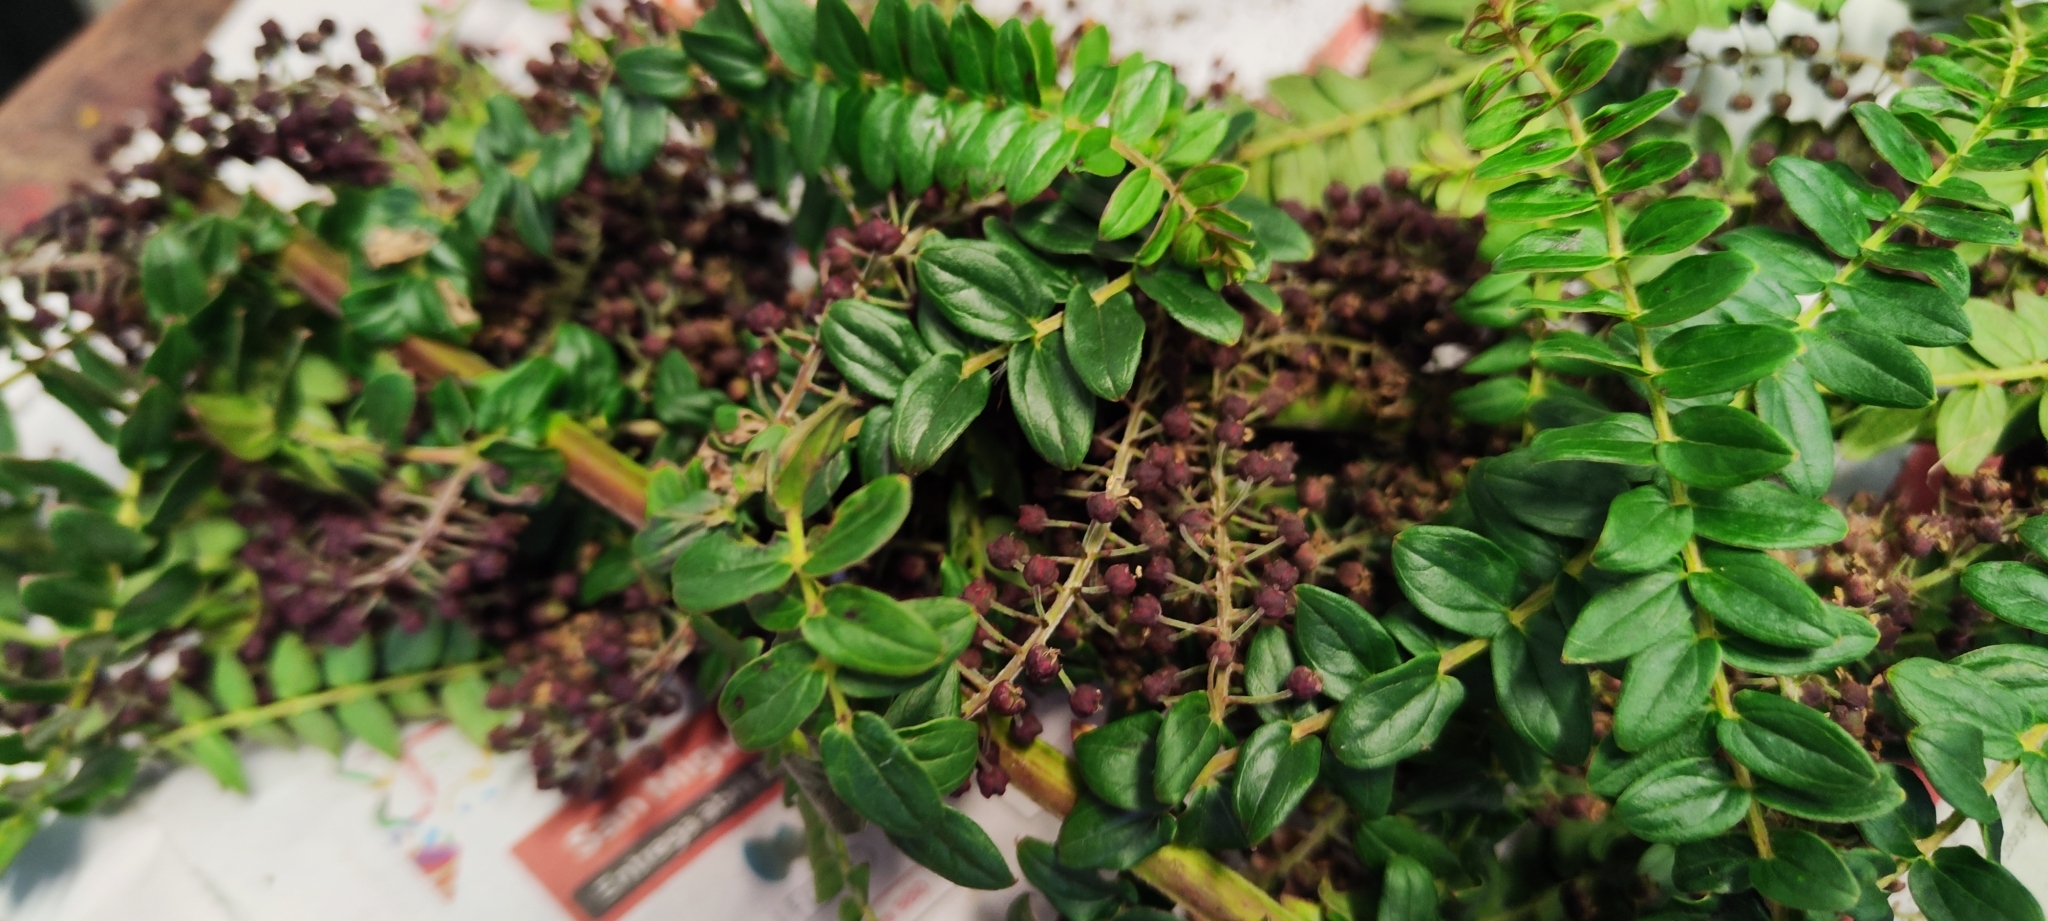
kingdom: Plantae
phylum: Tracheophyta
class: Magnoliopsida
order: Cucurbitales
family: Coriariaceae
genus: Coriaria
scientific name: Coriaria ruscifolia
